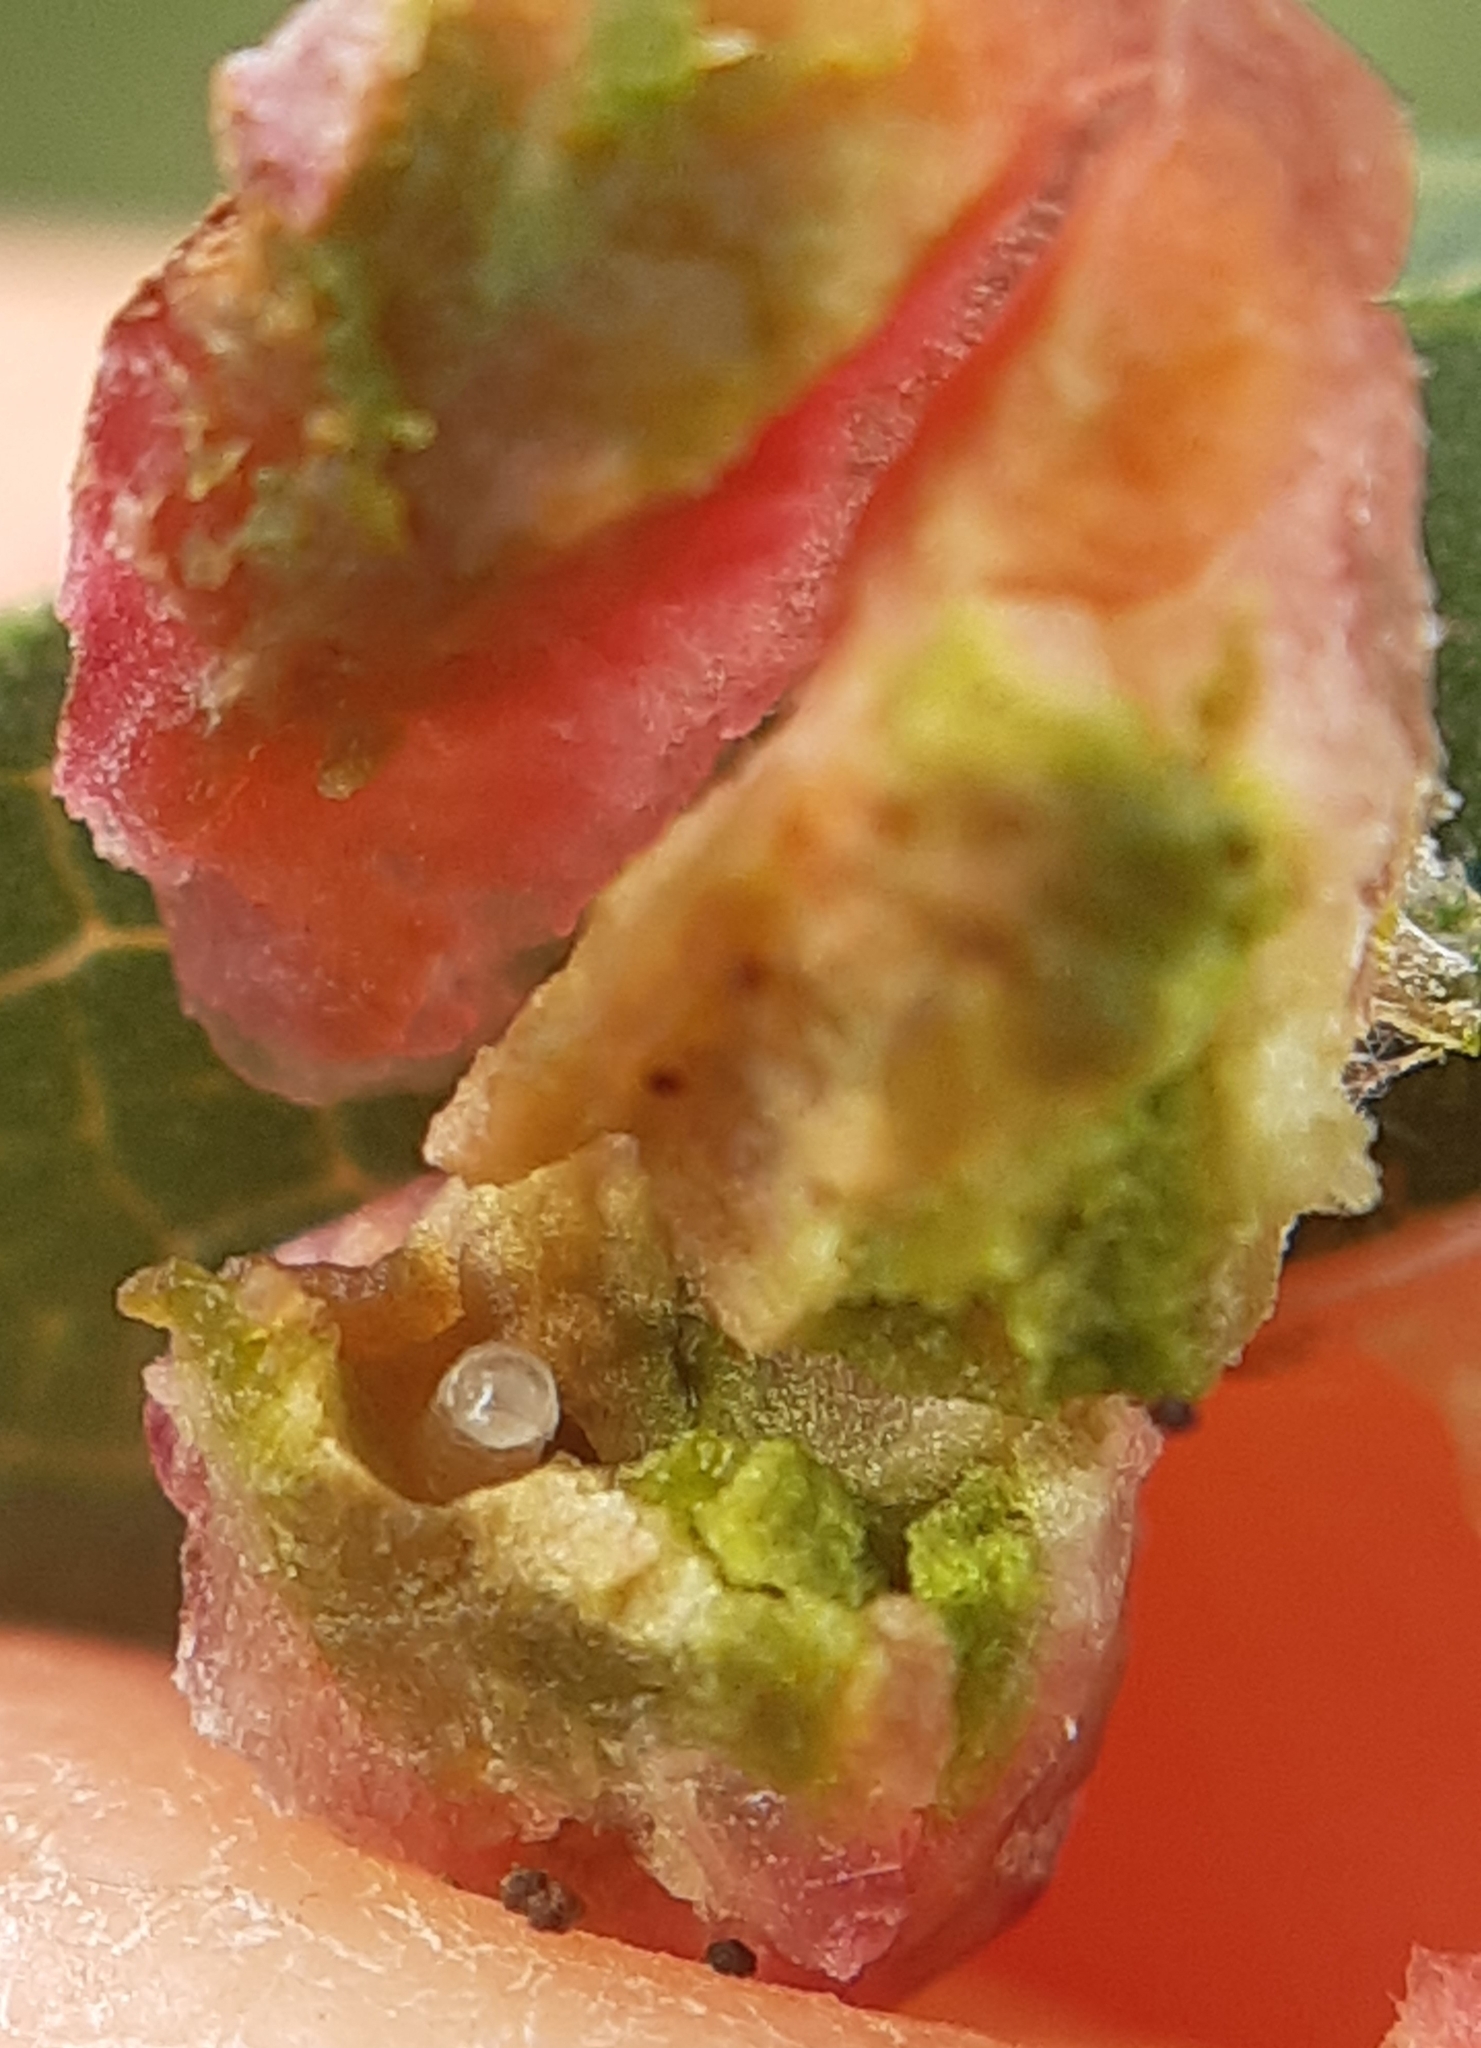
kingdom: Animalia
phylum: Arthropoda
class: Insecta
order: Hymenoptera
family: Tenthredinidae
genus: Pontania
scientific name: Pontania vesicator
